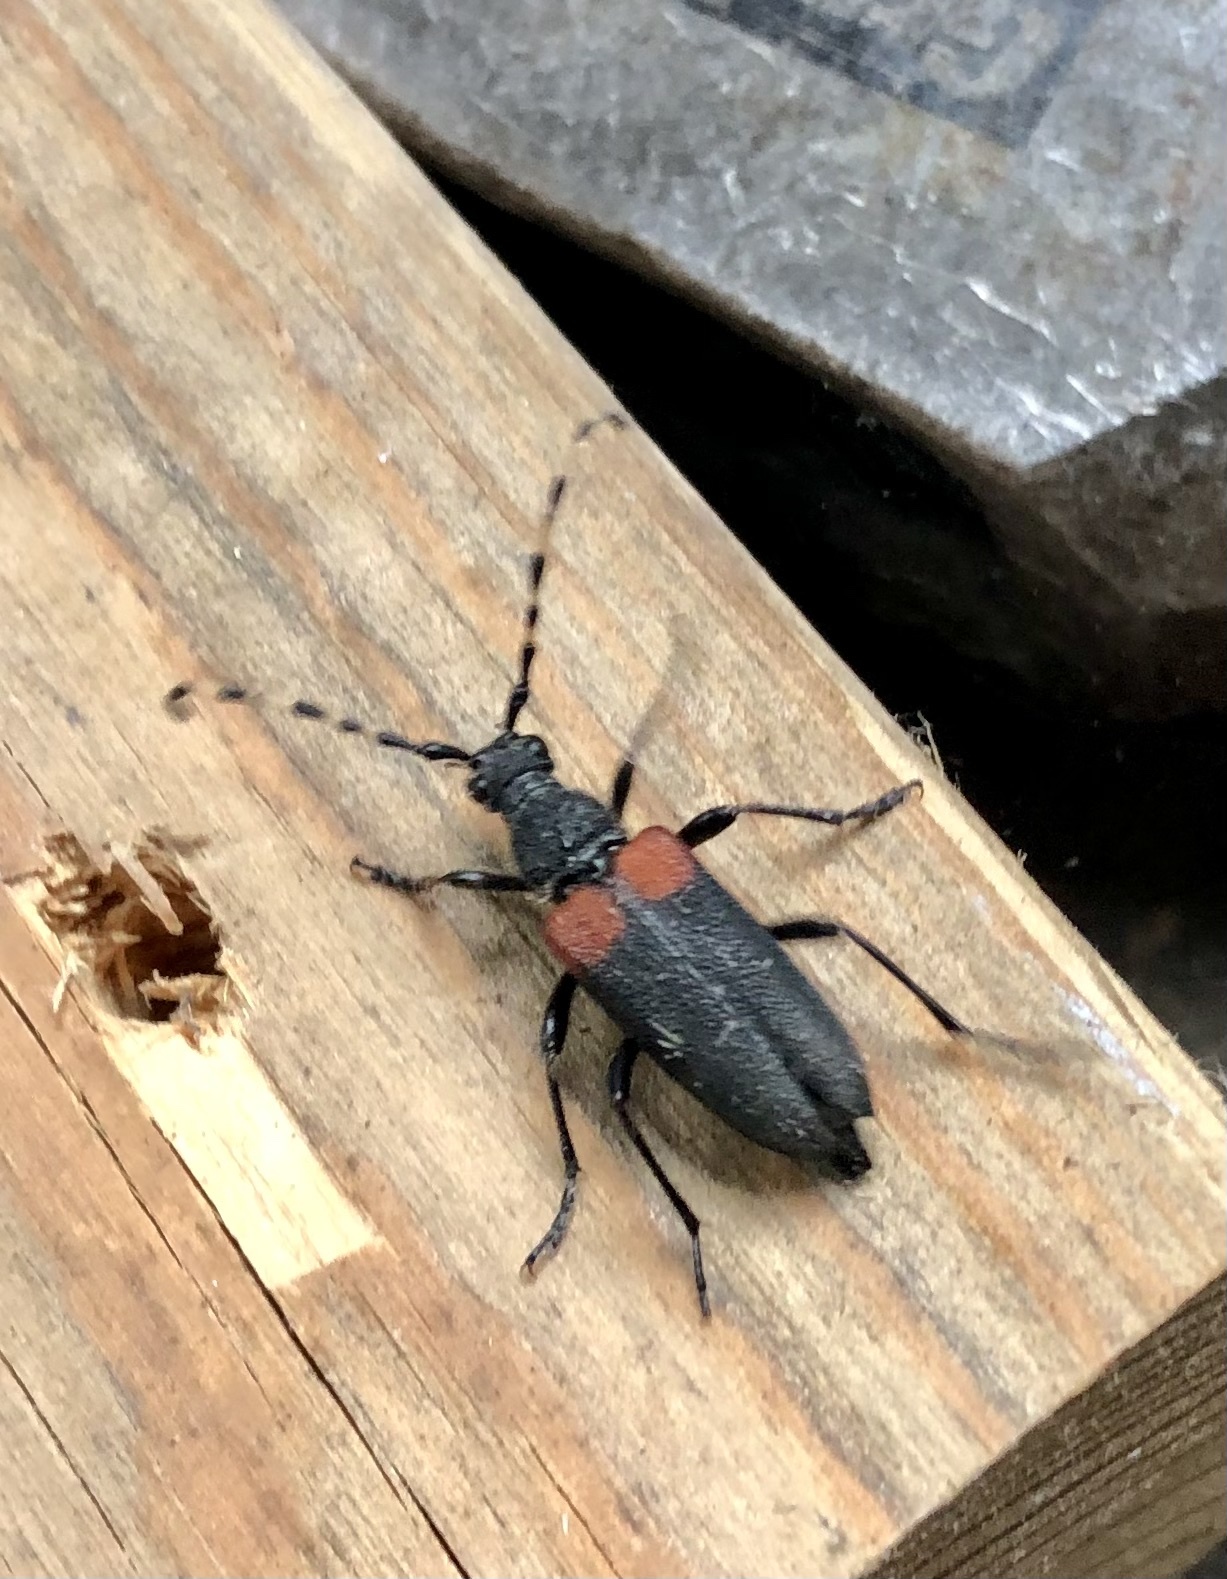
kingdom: Animalia
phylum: Arthropoda
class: Insecta
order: Coleoptera
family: Cerambycidae
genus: Stictoleptura
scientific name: Stictoleptura canadensis
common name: Red-shouldered pine borer
